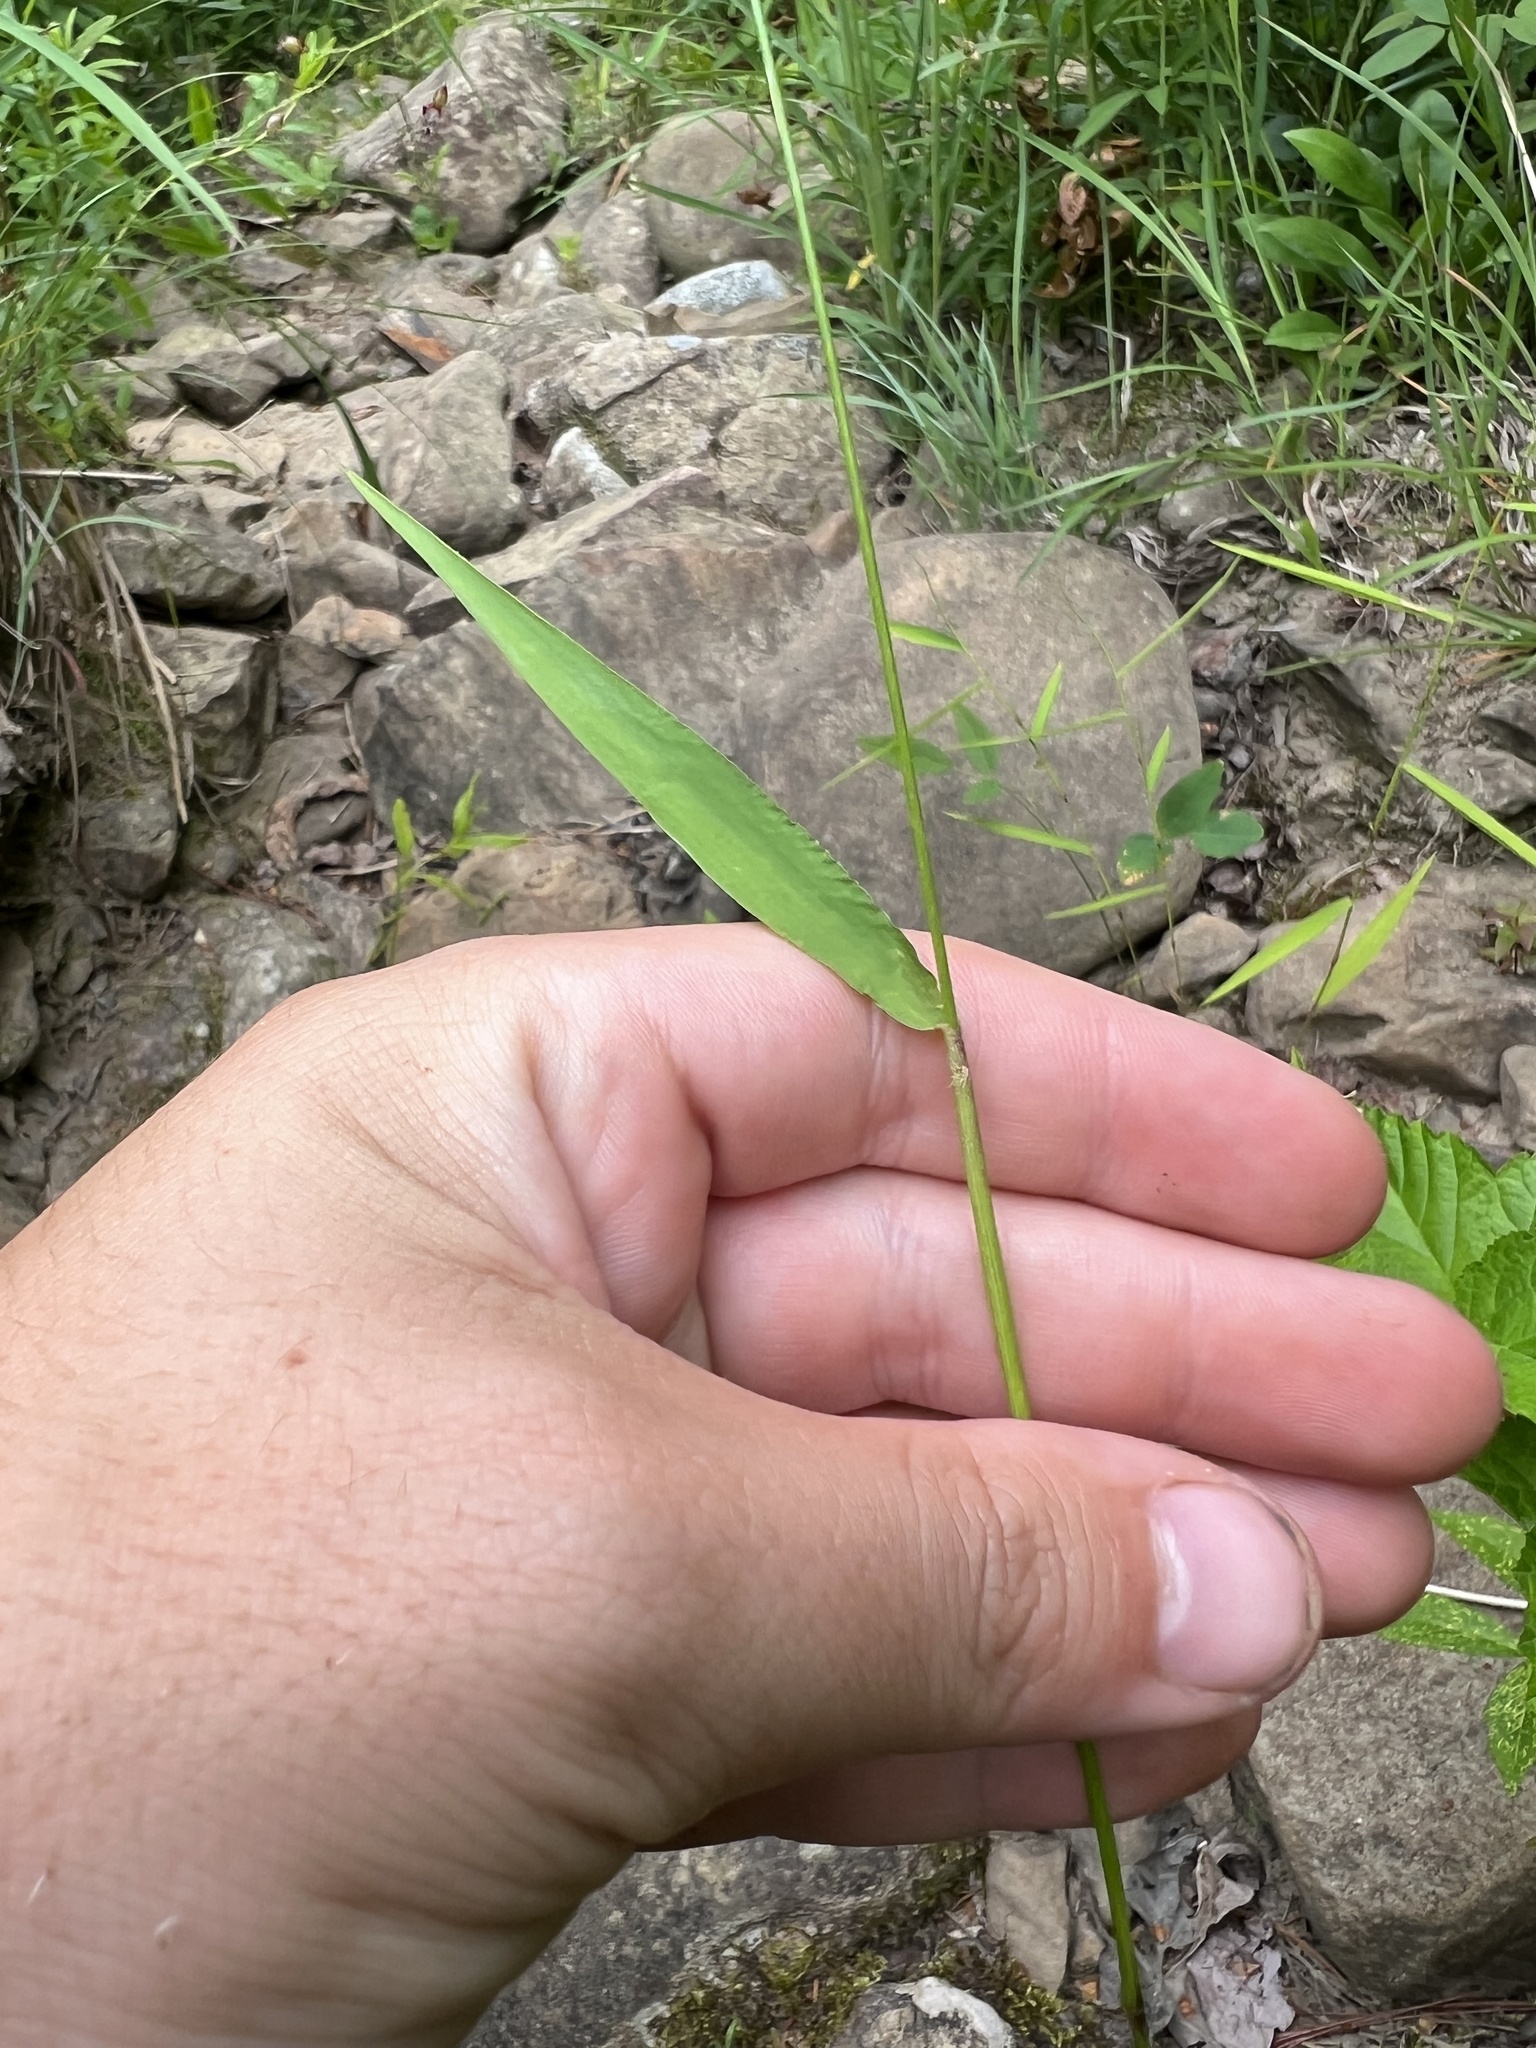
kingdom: Plantae
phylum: Tracheophyta
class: Liliopsida
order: Poales
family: Poaceae
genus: Dichanthelium
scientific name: Dichanthelium yadkinense
